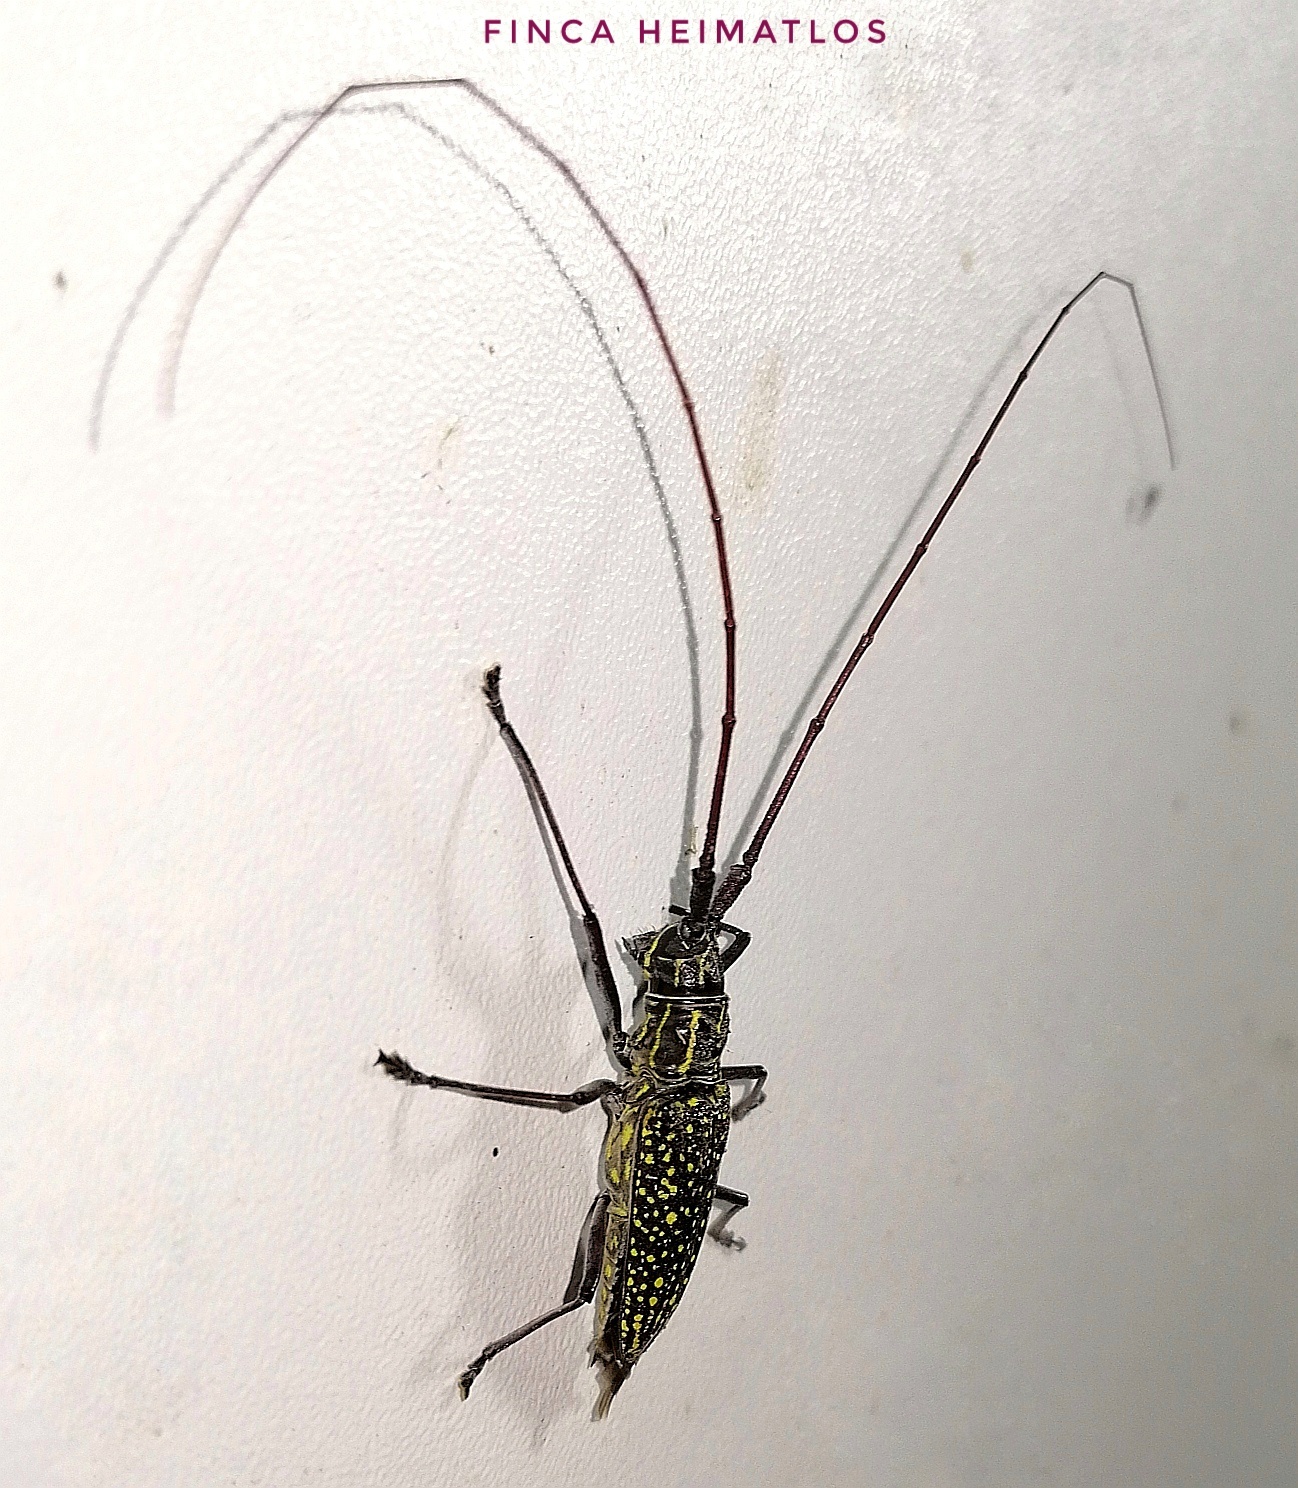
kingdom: Animalia
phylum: Arthropoda
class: Insecta
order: Coleoptera
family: Cerambycidae
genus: Taeniotes
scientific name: Taeniotes pulverulentus
